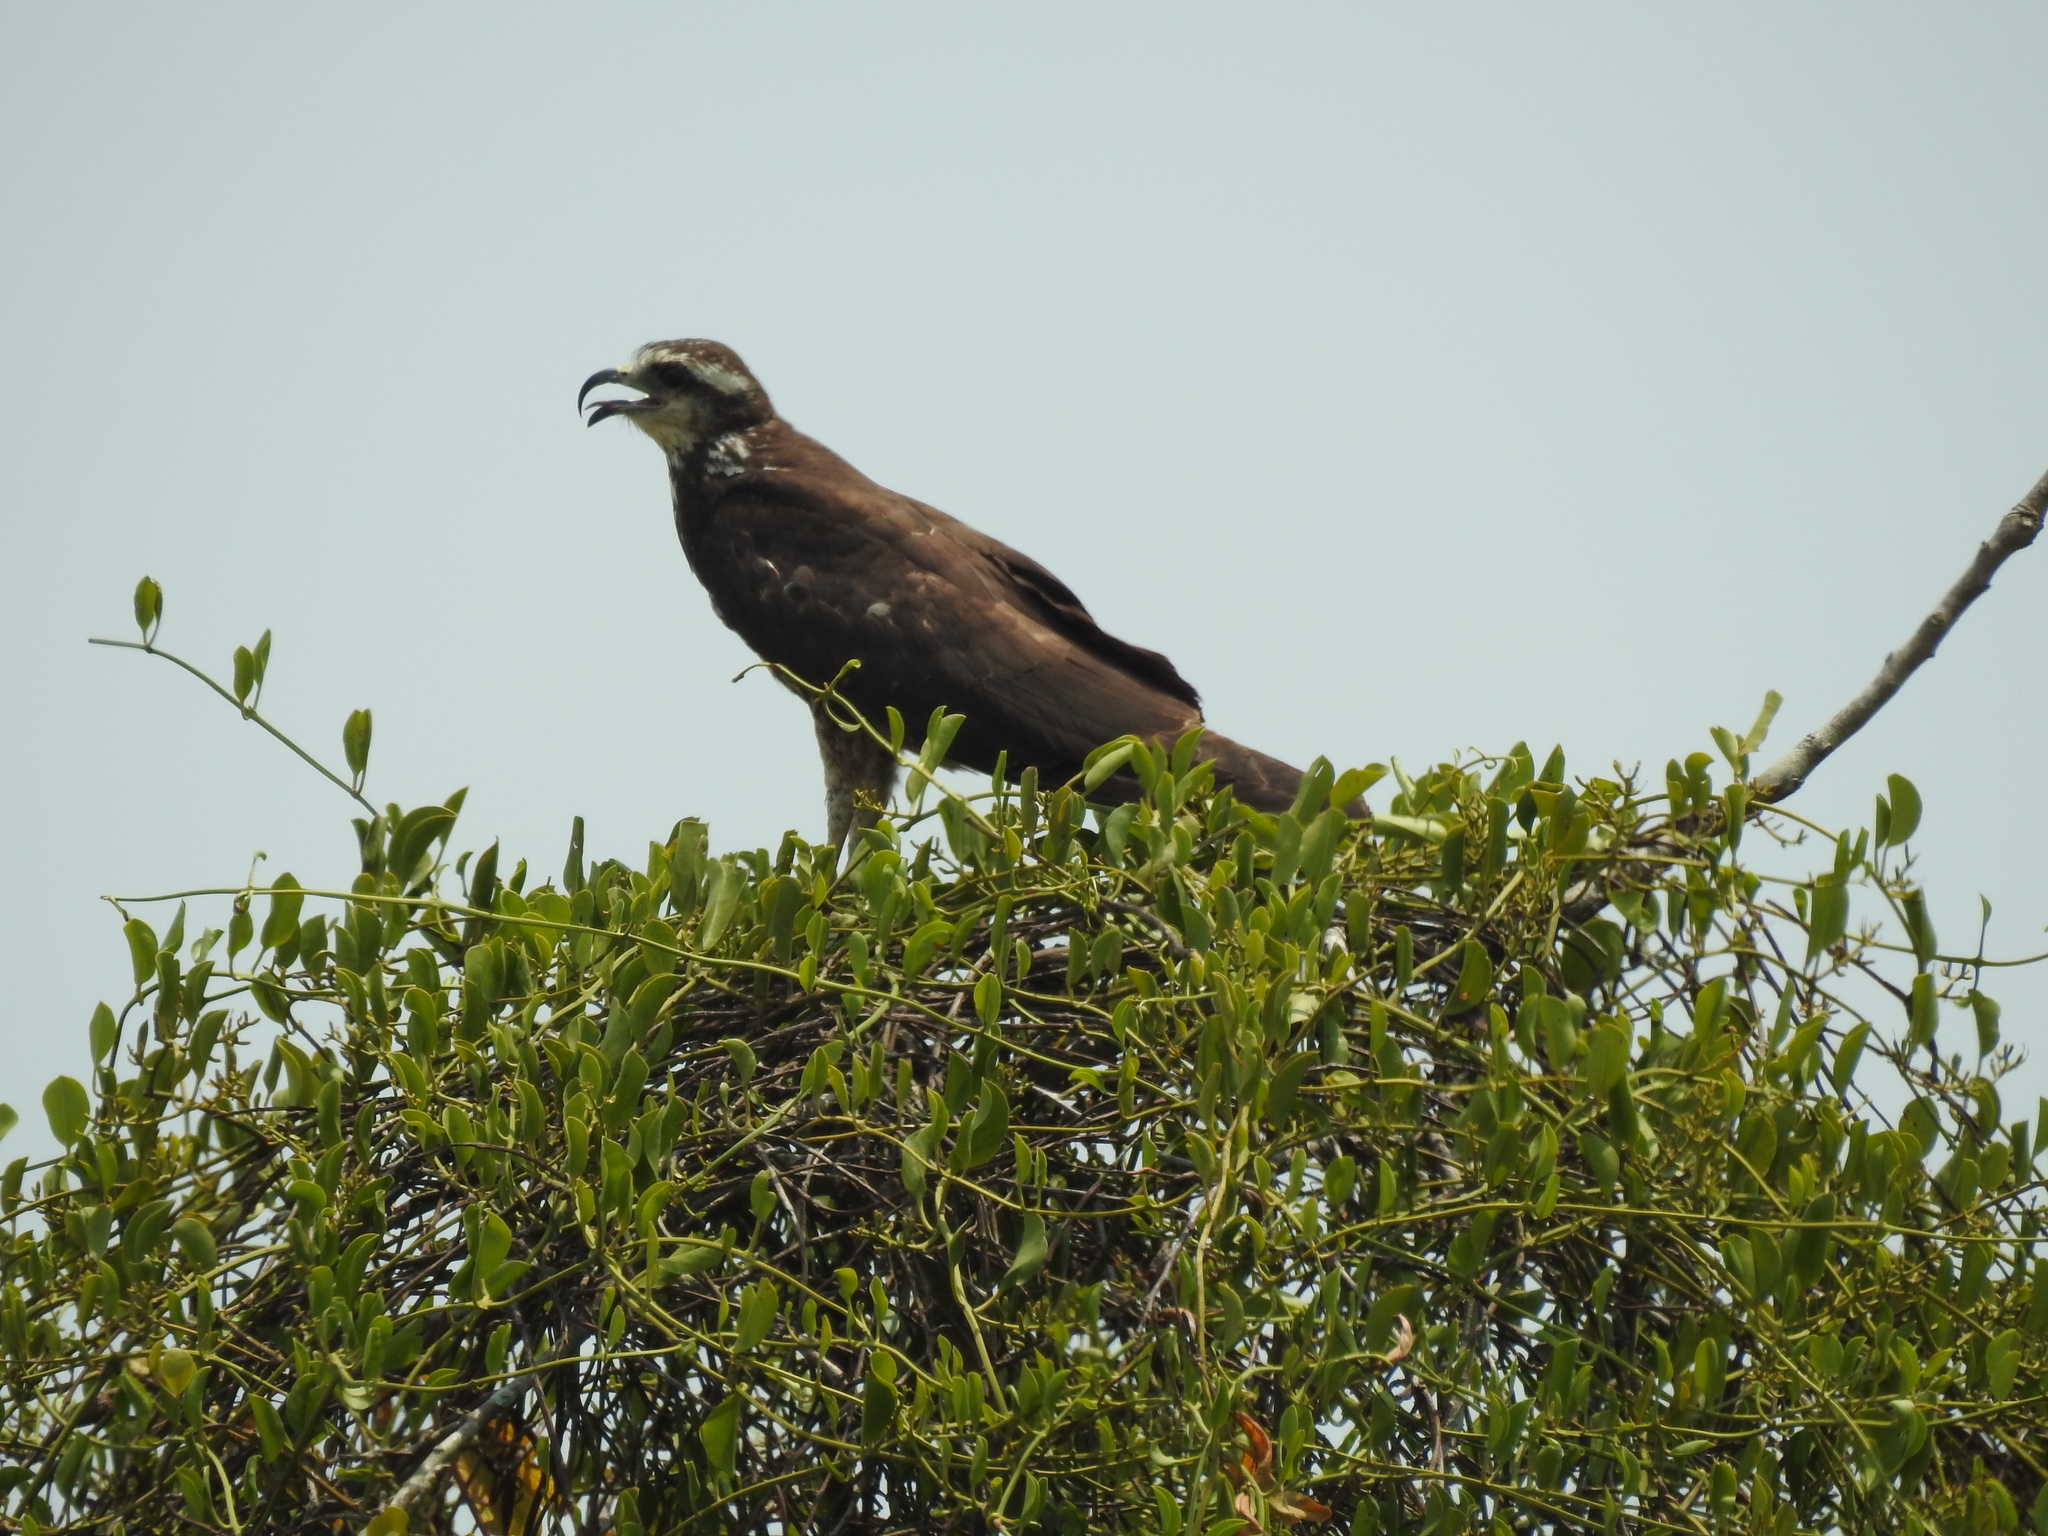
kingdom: Animalia
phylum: Chordata
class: Aves
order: Accipitriformes
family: Accipitridae
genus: Rostrhamus
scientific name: Rostrhamus sociabilis
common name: Snail kite
